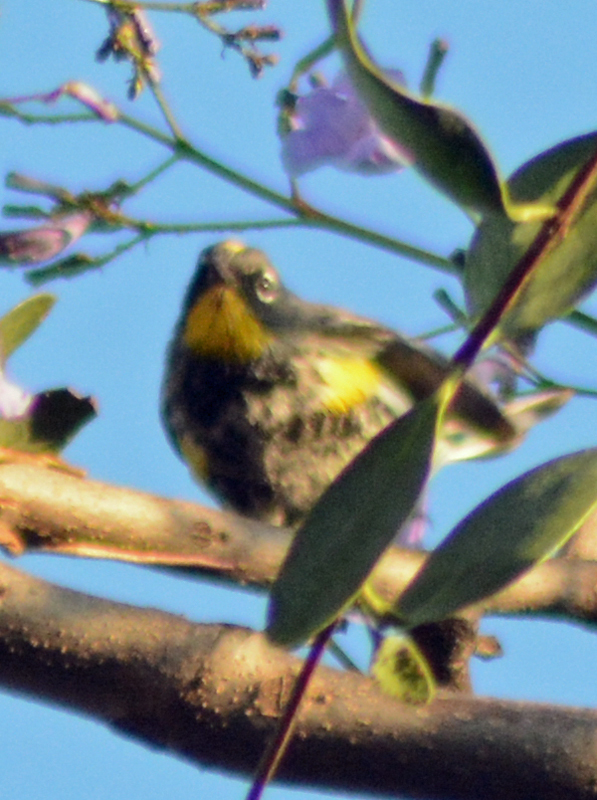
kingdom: Animalia
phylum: Chordata
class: Aves
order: Passeriformes
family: Parulidae
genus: Setophaga
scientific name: Setophaga auduboni
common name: Audubon's warbler
